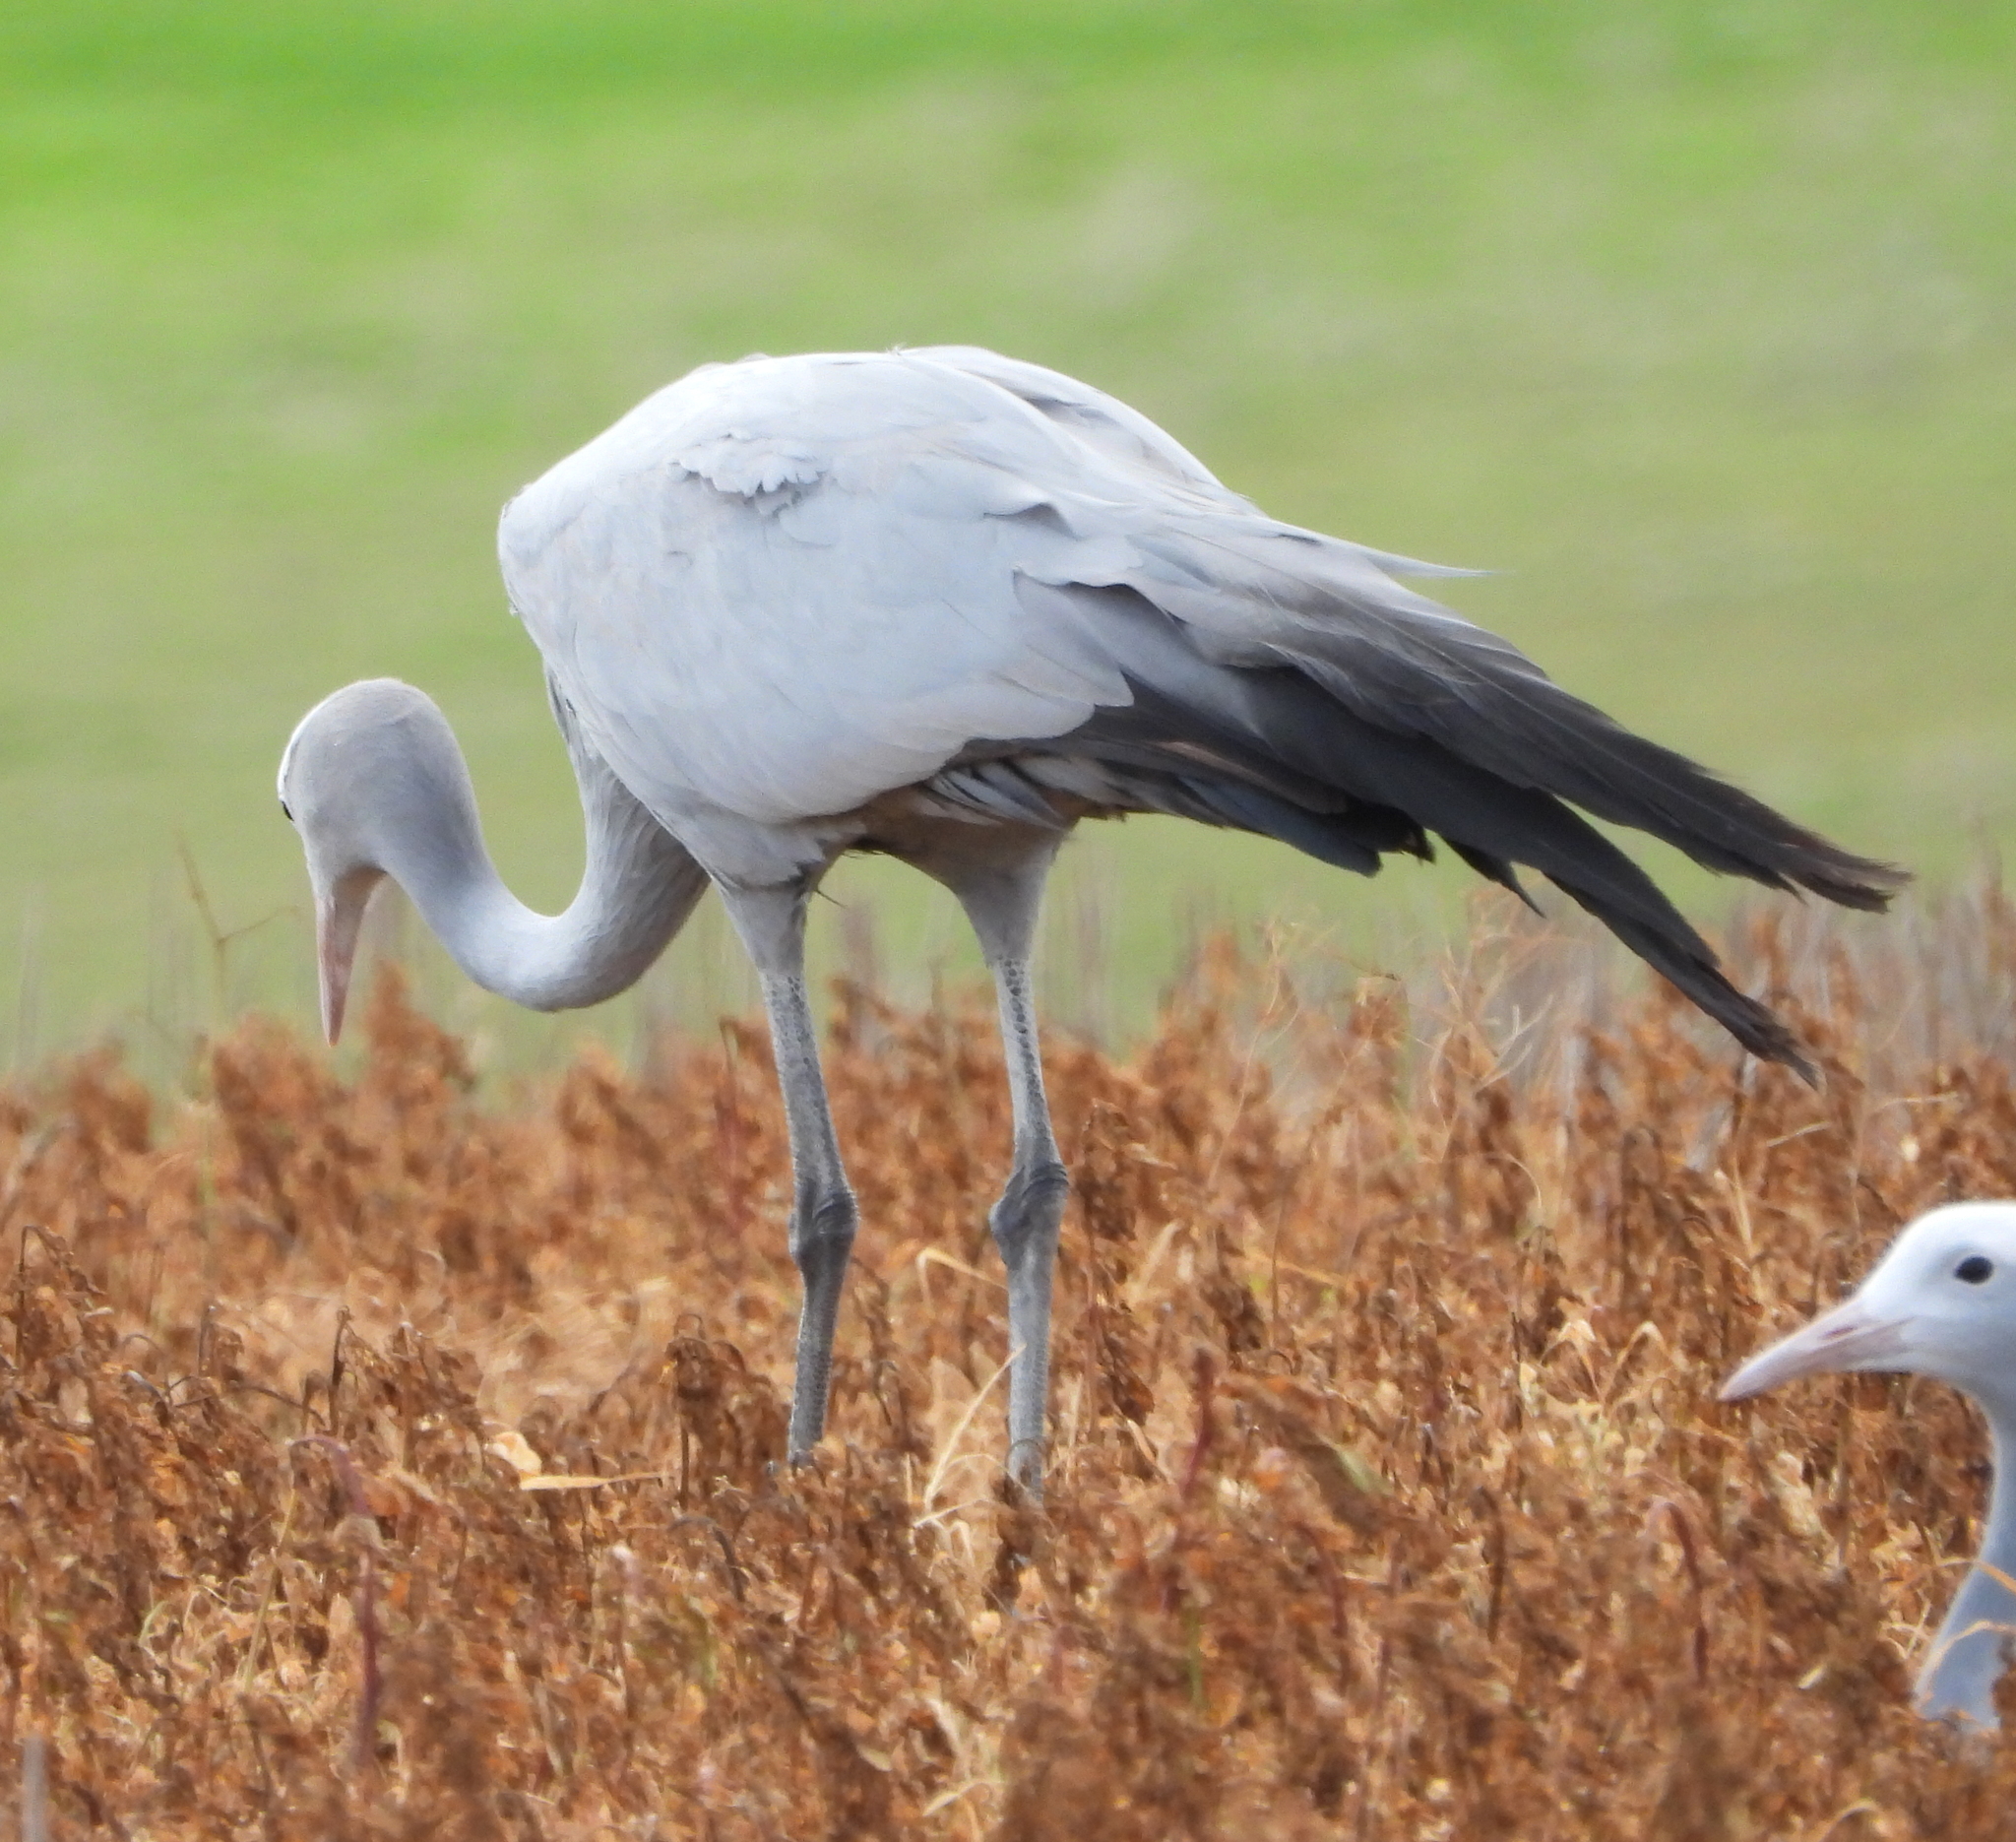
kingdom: Animalia
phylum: Chordata
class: Aves
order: Gruiformes
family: Gruidae
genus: Anthropoides
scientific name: Anthropoides paradiseus
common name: Blue crane
